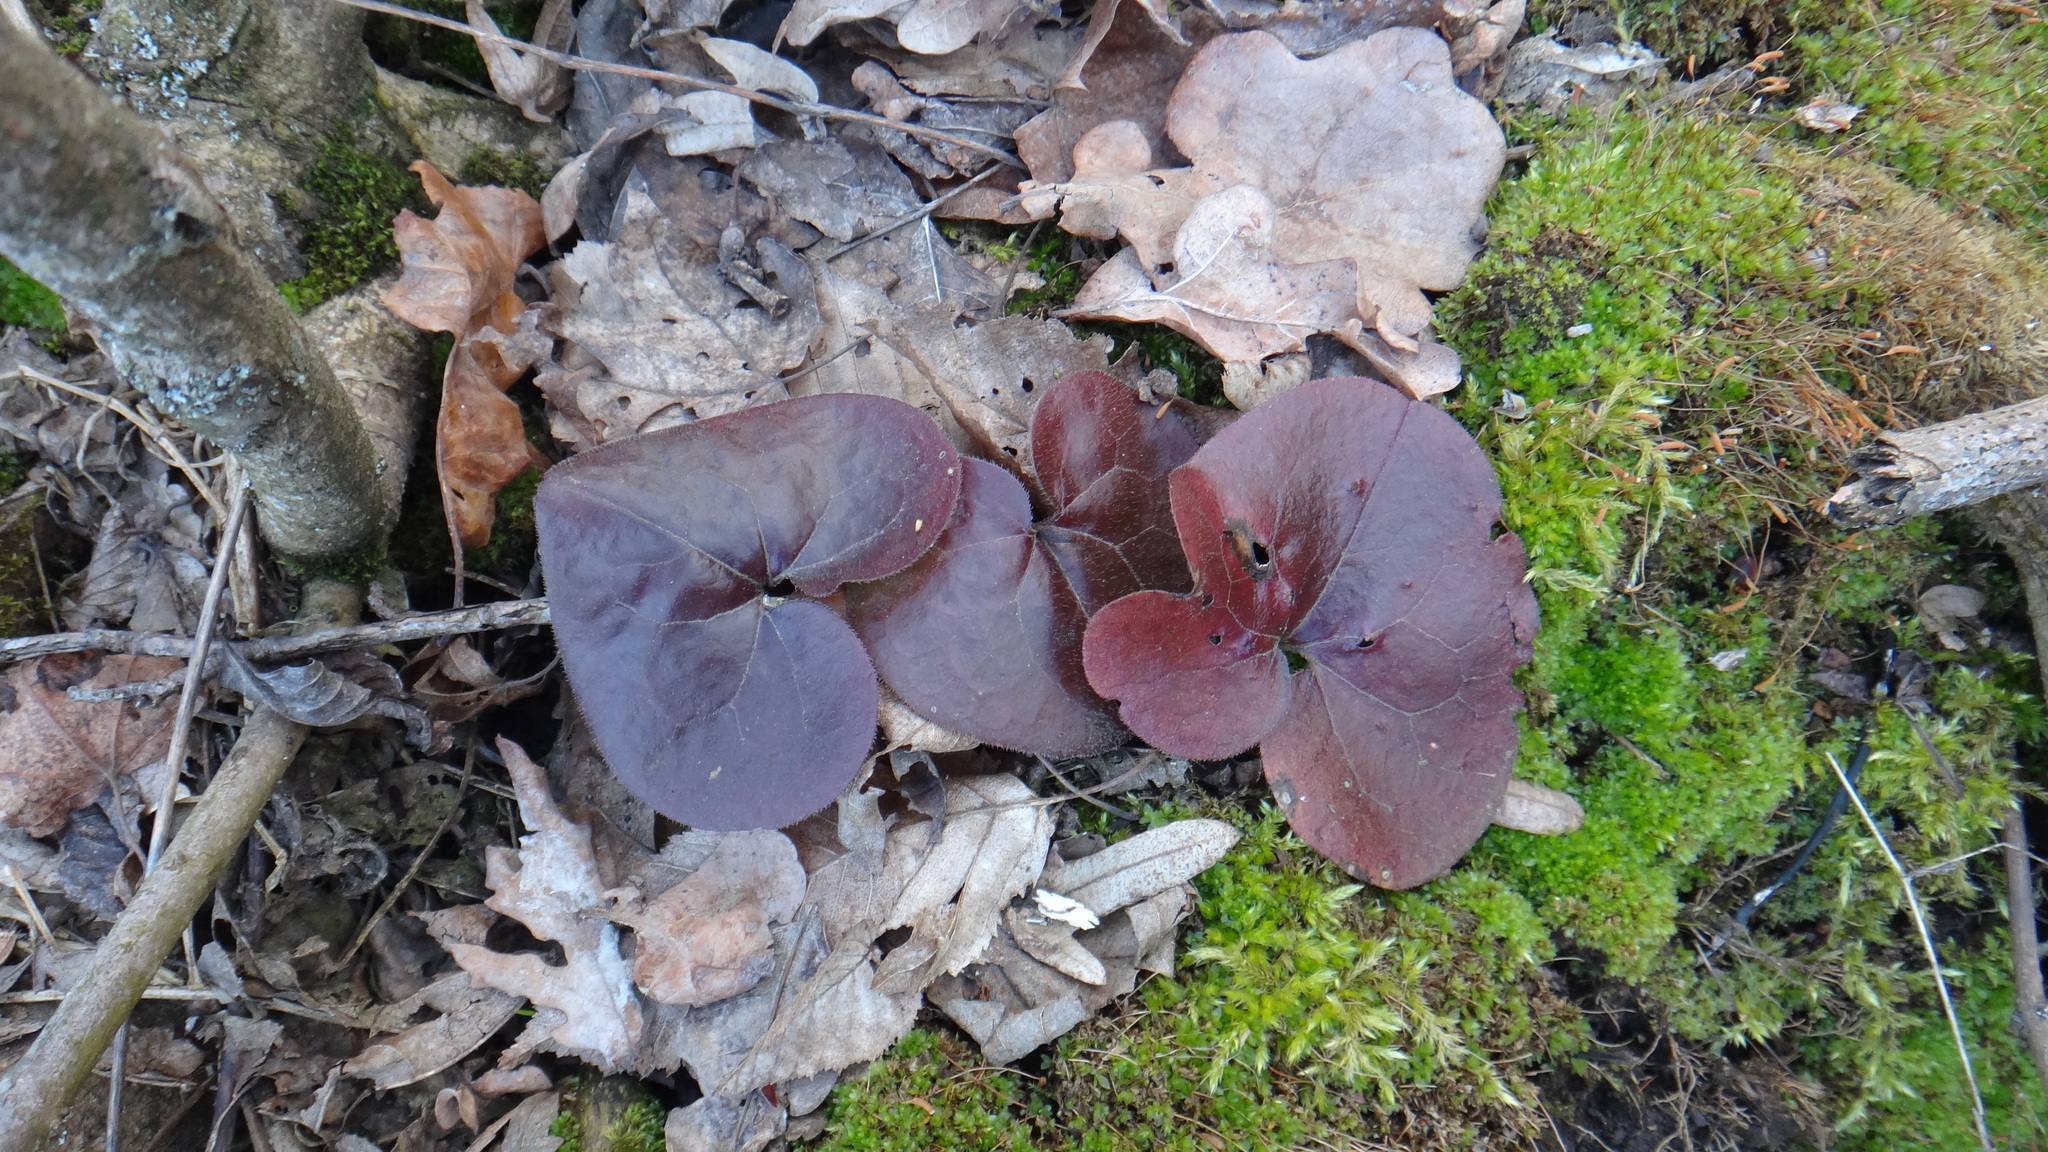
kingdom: Plantae
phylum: Tracheophyta
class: Magnoliopsida
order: Piperales
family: Aristolochiaceae
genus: Asarum
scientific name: Asarum europaeum
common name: Asarabacca
